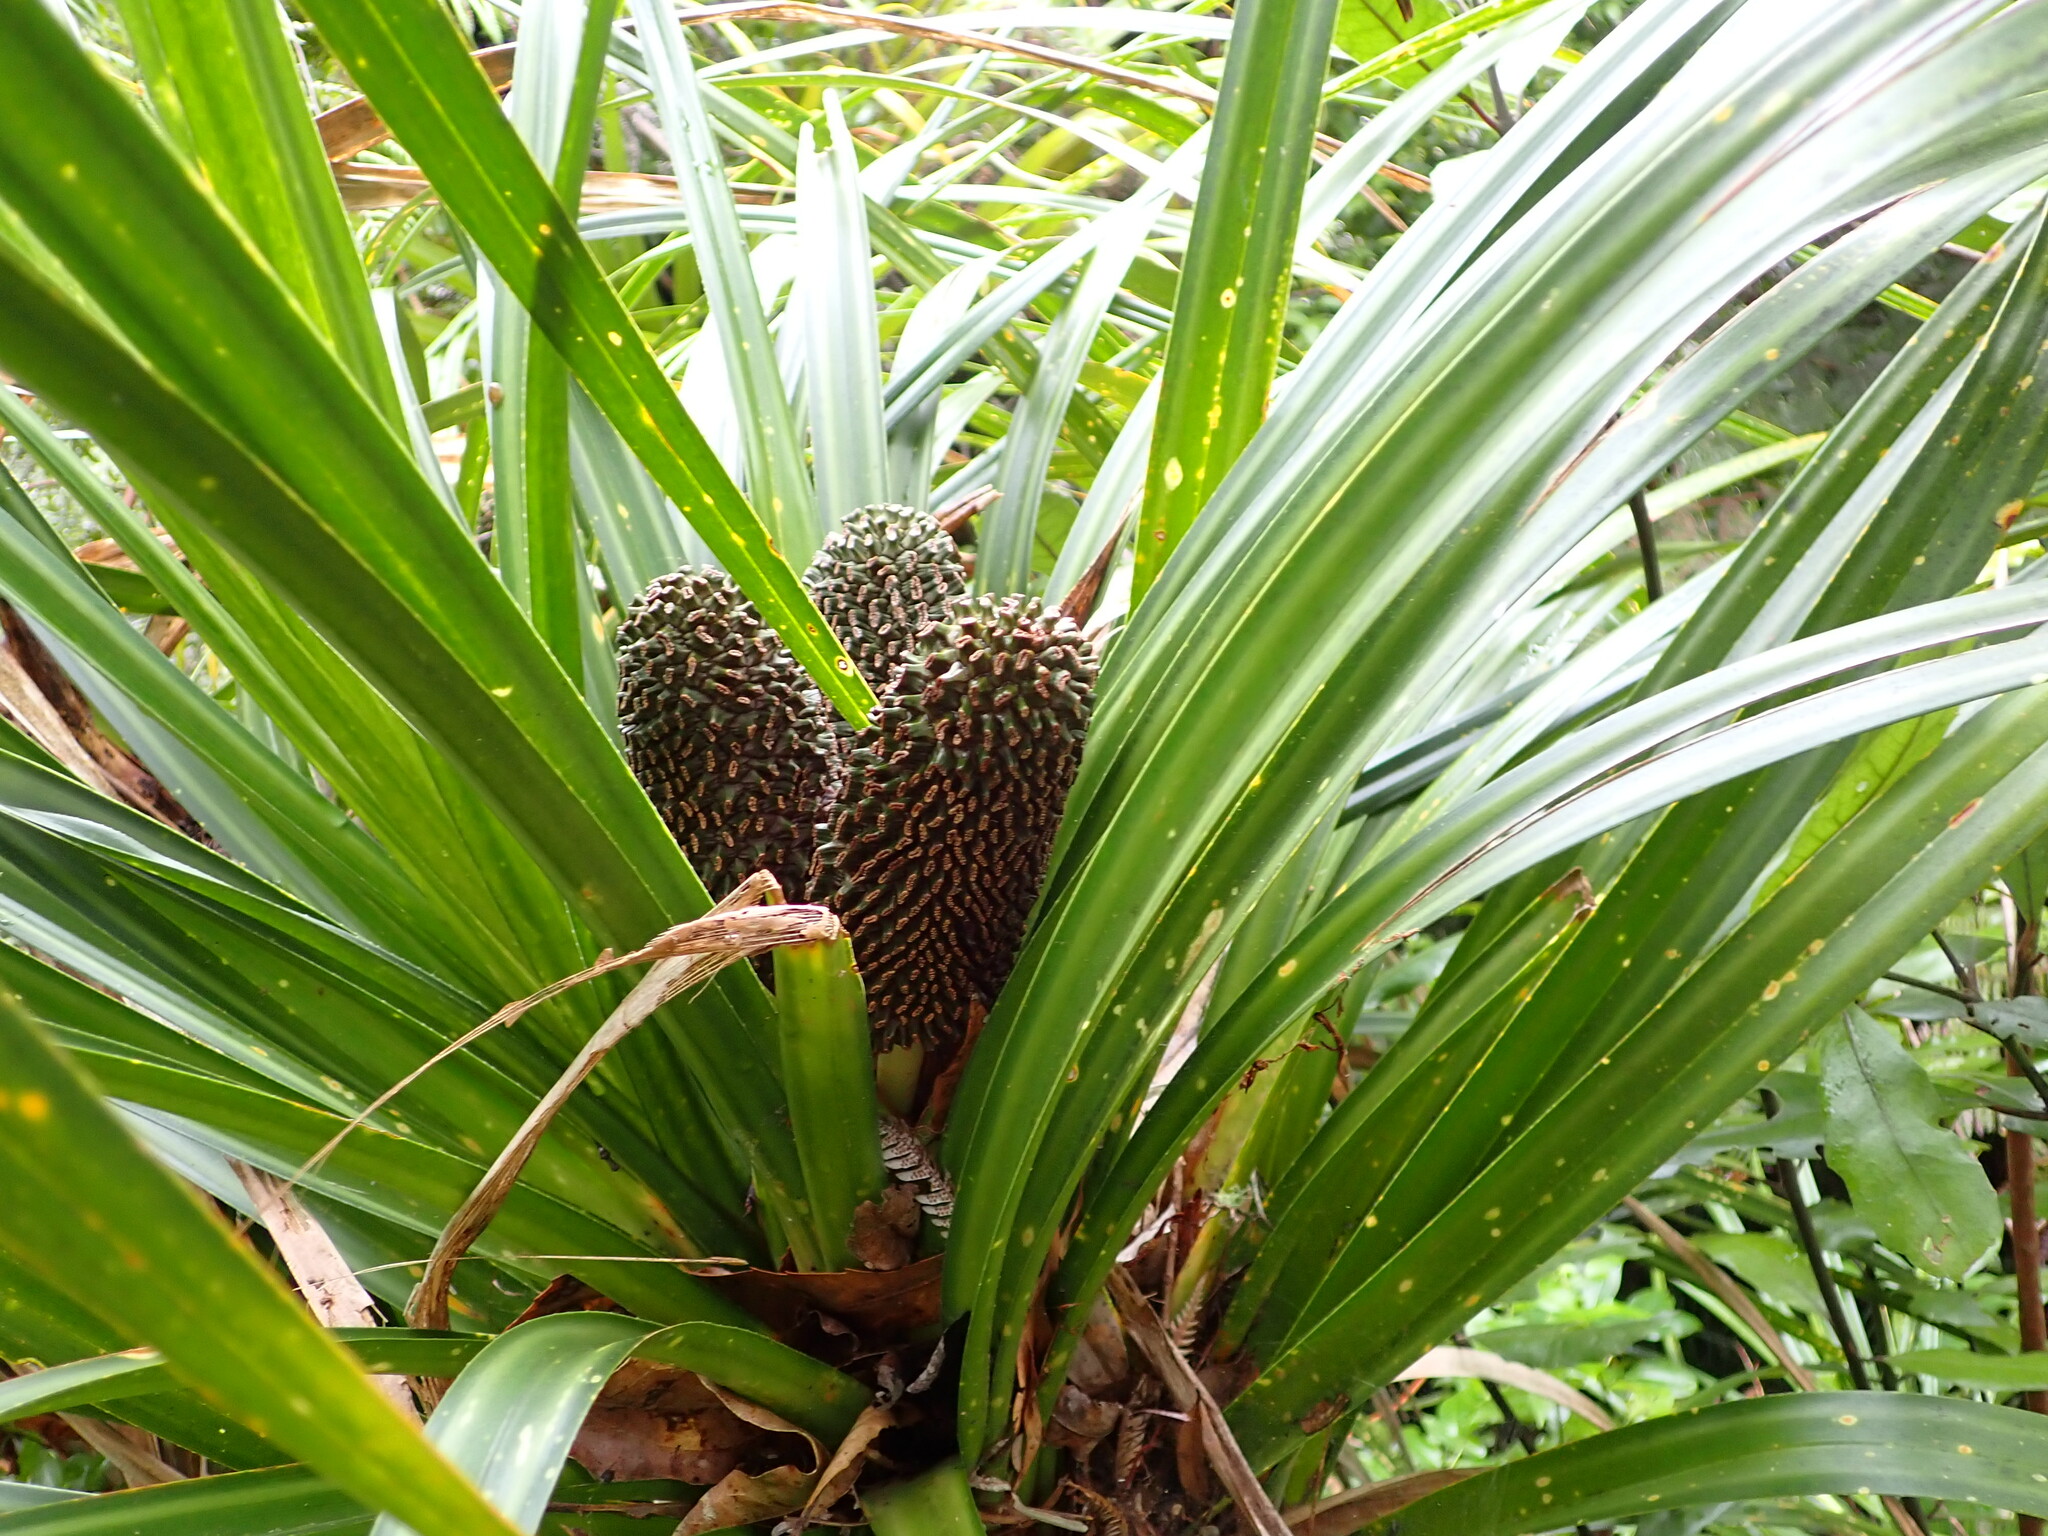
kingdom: Plantae
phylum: Tracheophyta
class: Liliopsida
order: Pandanales
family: Pandanaceae
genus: Freycinetia
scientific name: Freycinetia banksii
